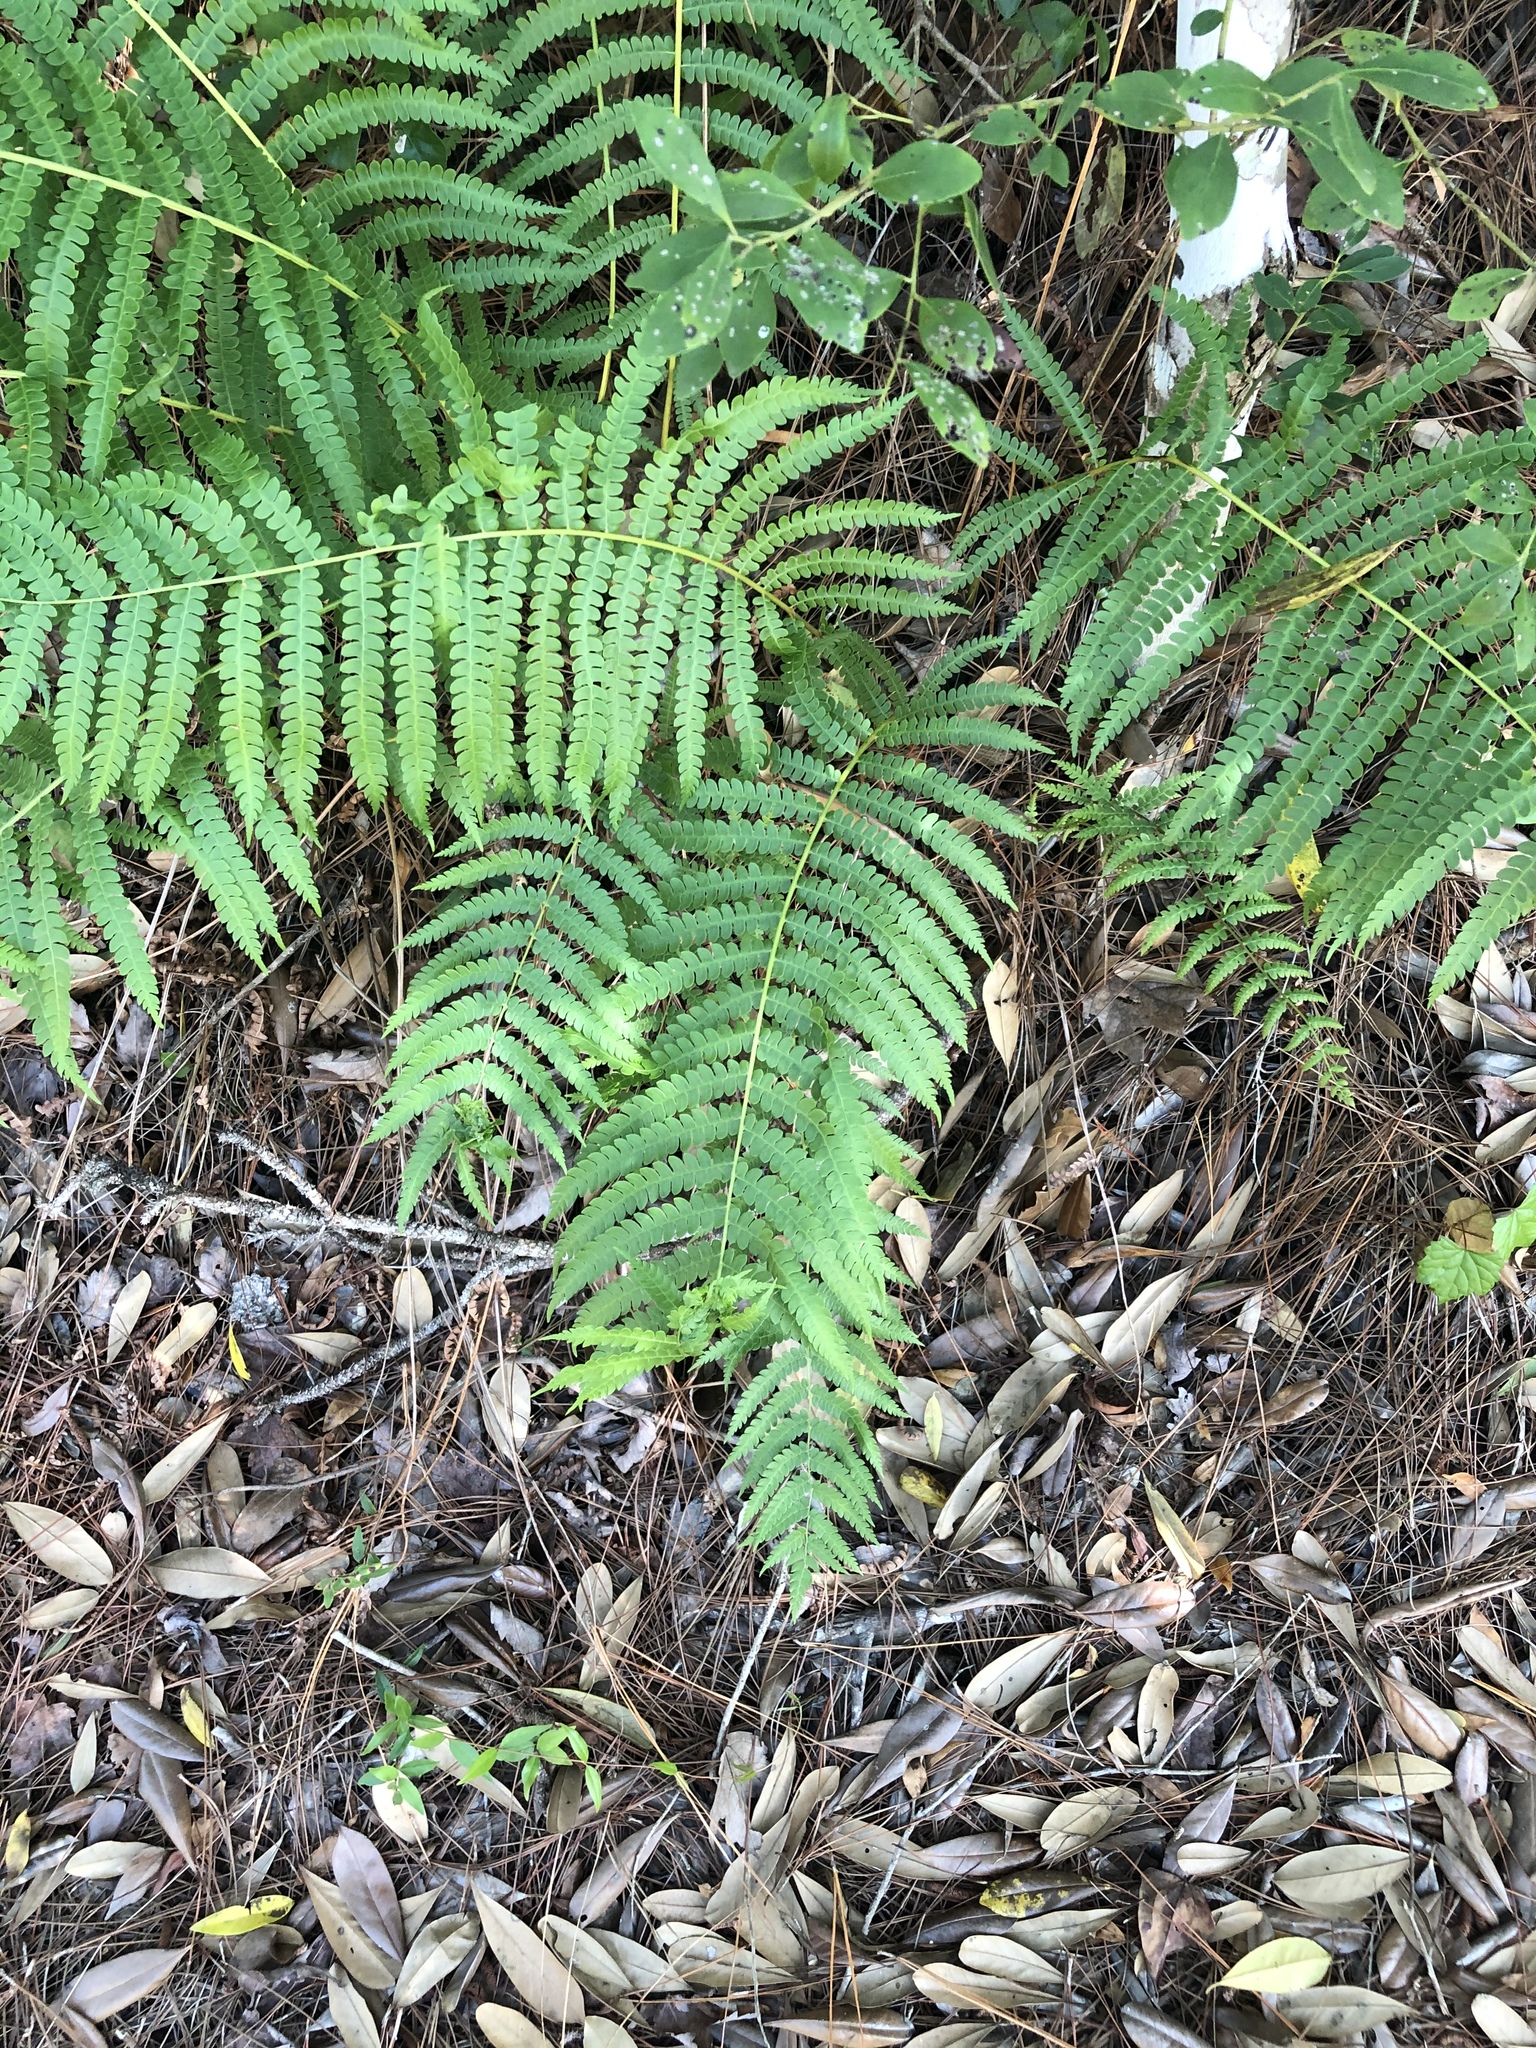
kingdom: Plantae
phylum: Tracheophyta
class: Polypodiopsida
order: Osmundales
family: Osmundaceae
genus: Osmundastrum
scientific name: Osmundastrum cinnamomeum
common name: Cinnamon fern
